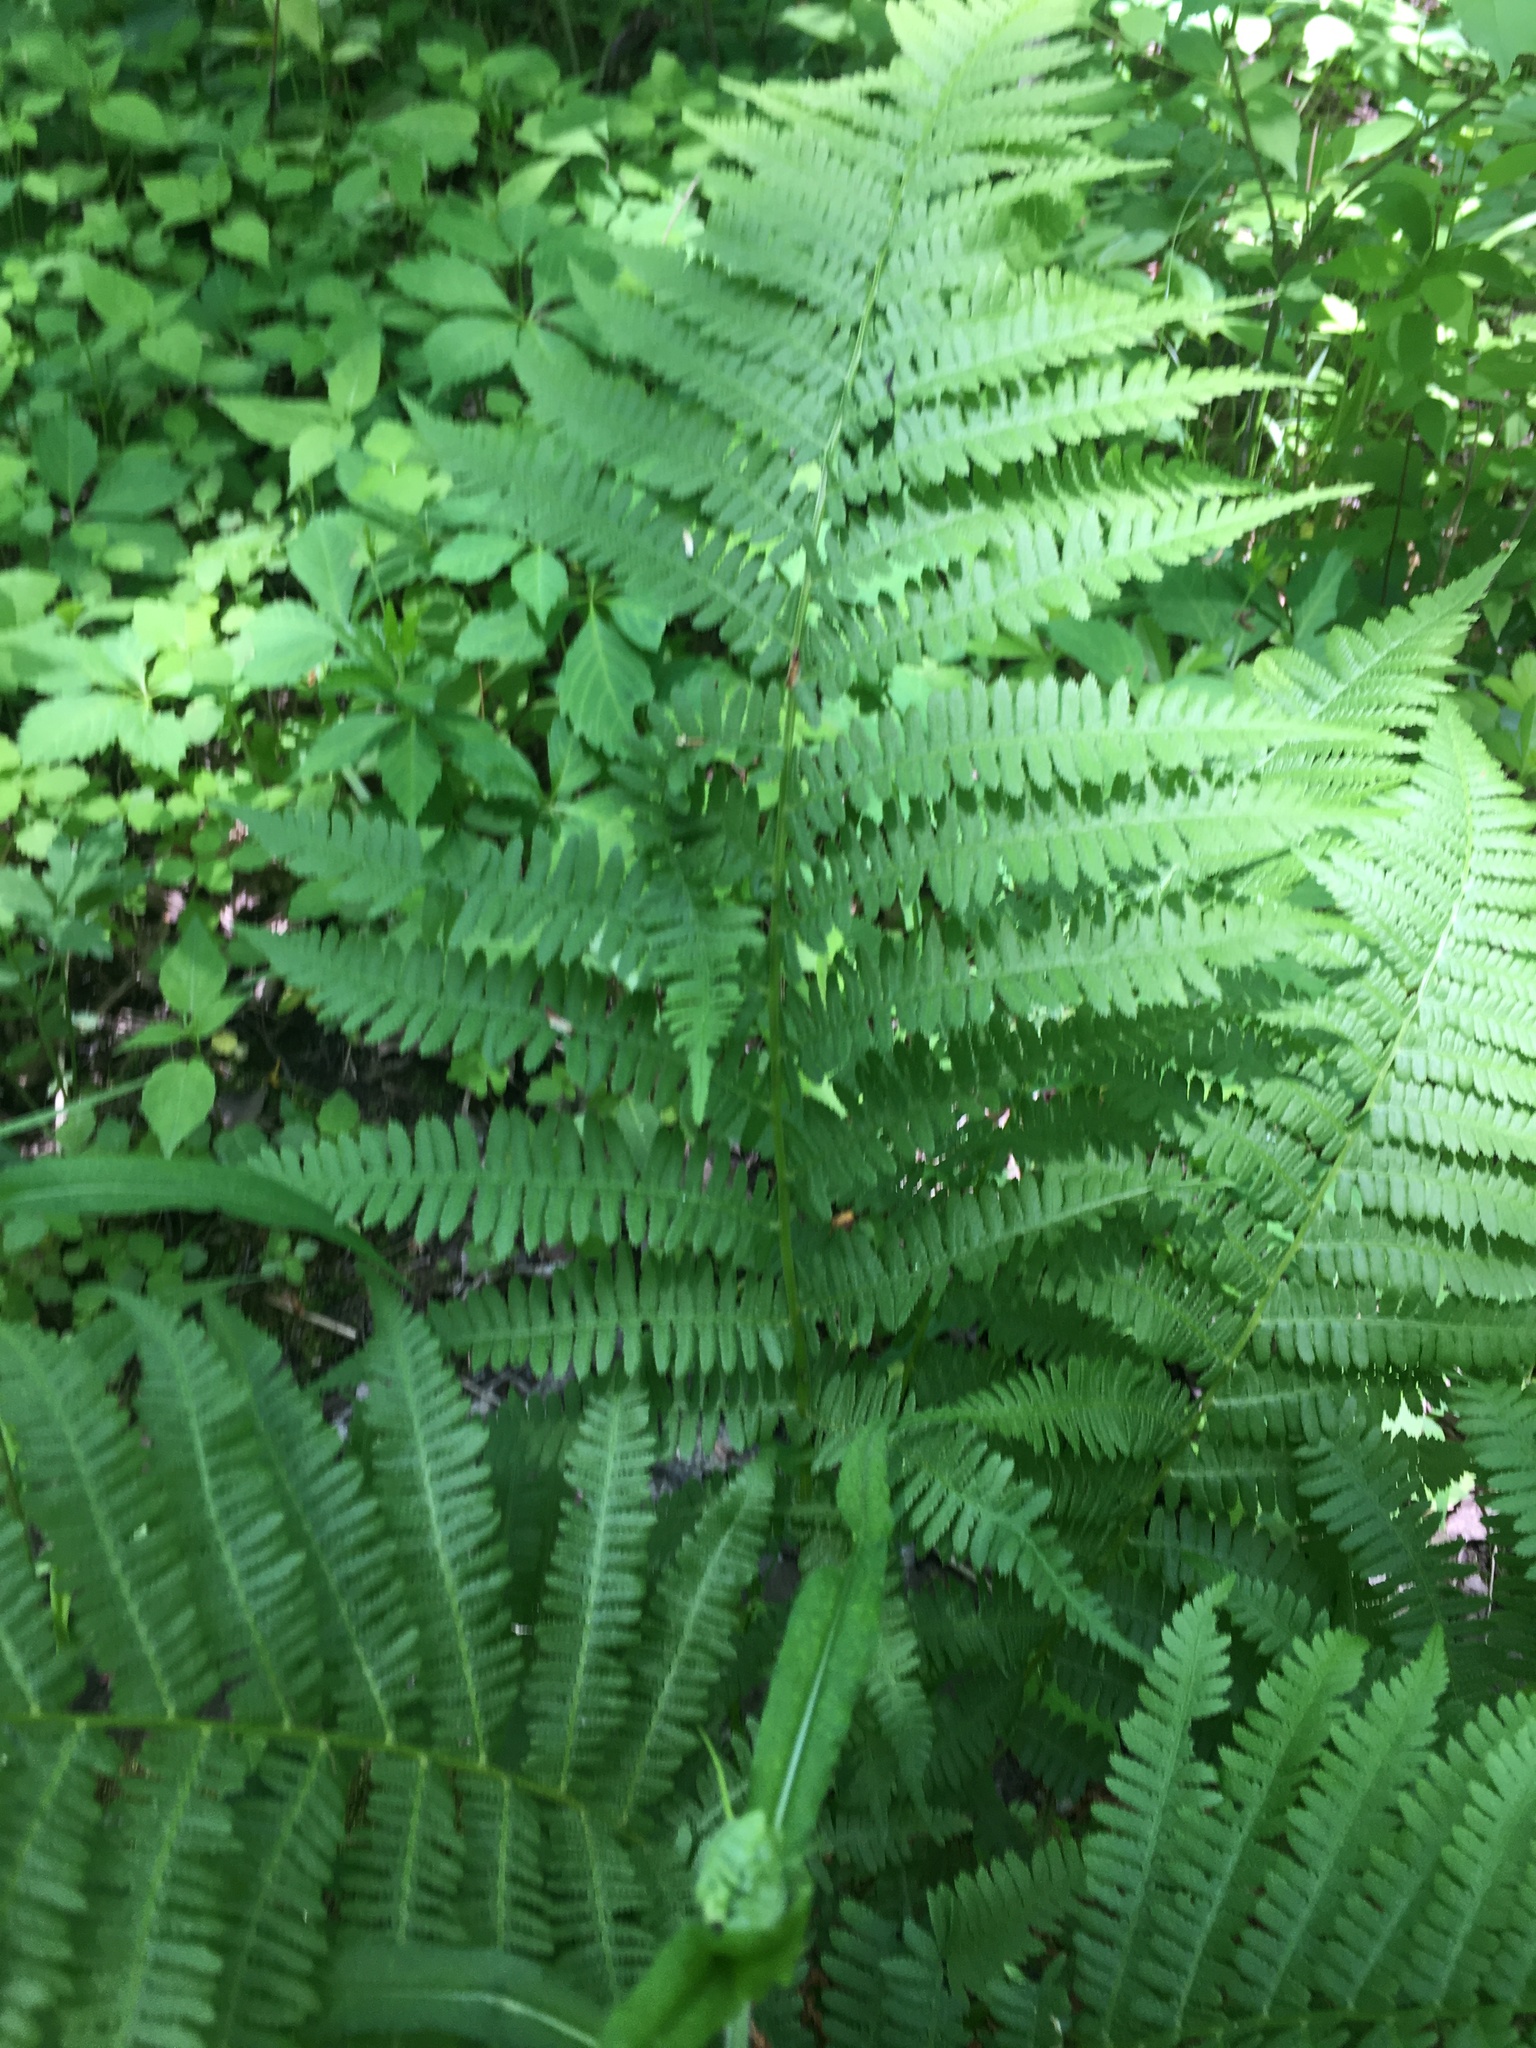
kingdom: Plantae
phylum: Tracheophyta
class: Polypodiopsida
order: Polypodiales
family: Athyriaceae
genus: Athyrium
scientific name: Athyrium angustum
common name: Northern lady fern
